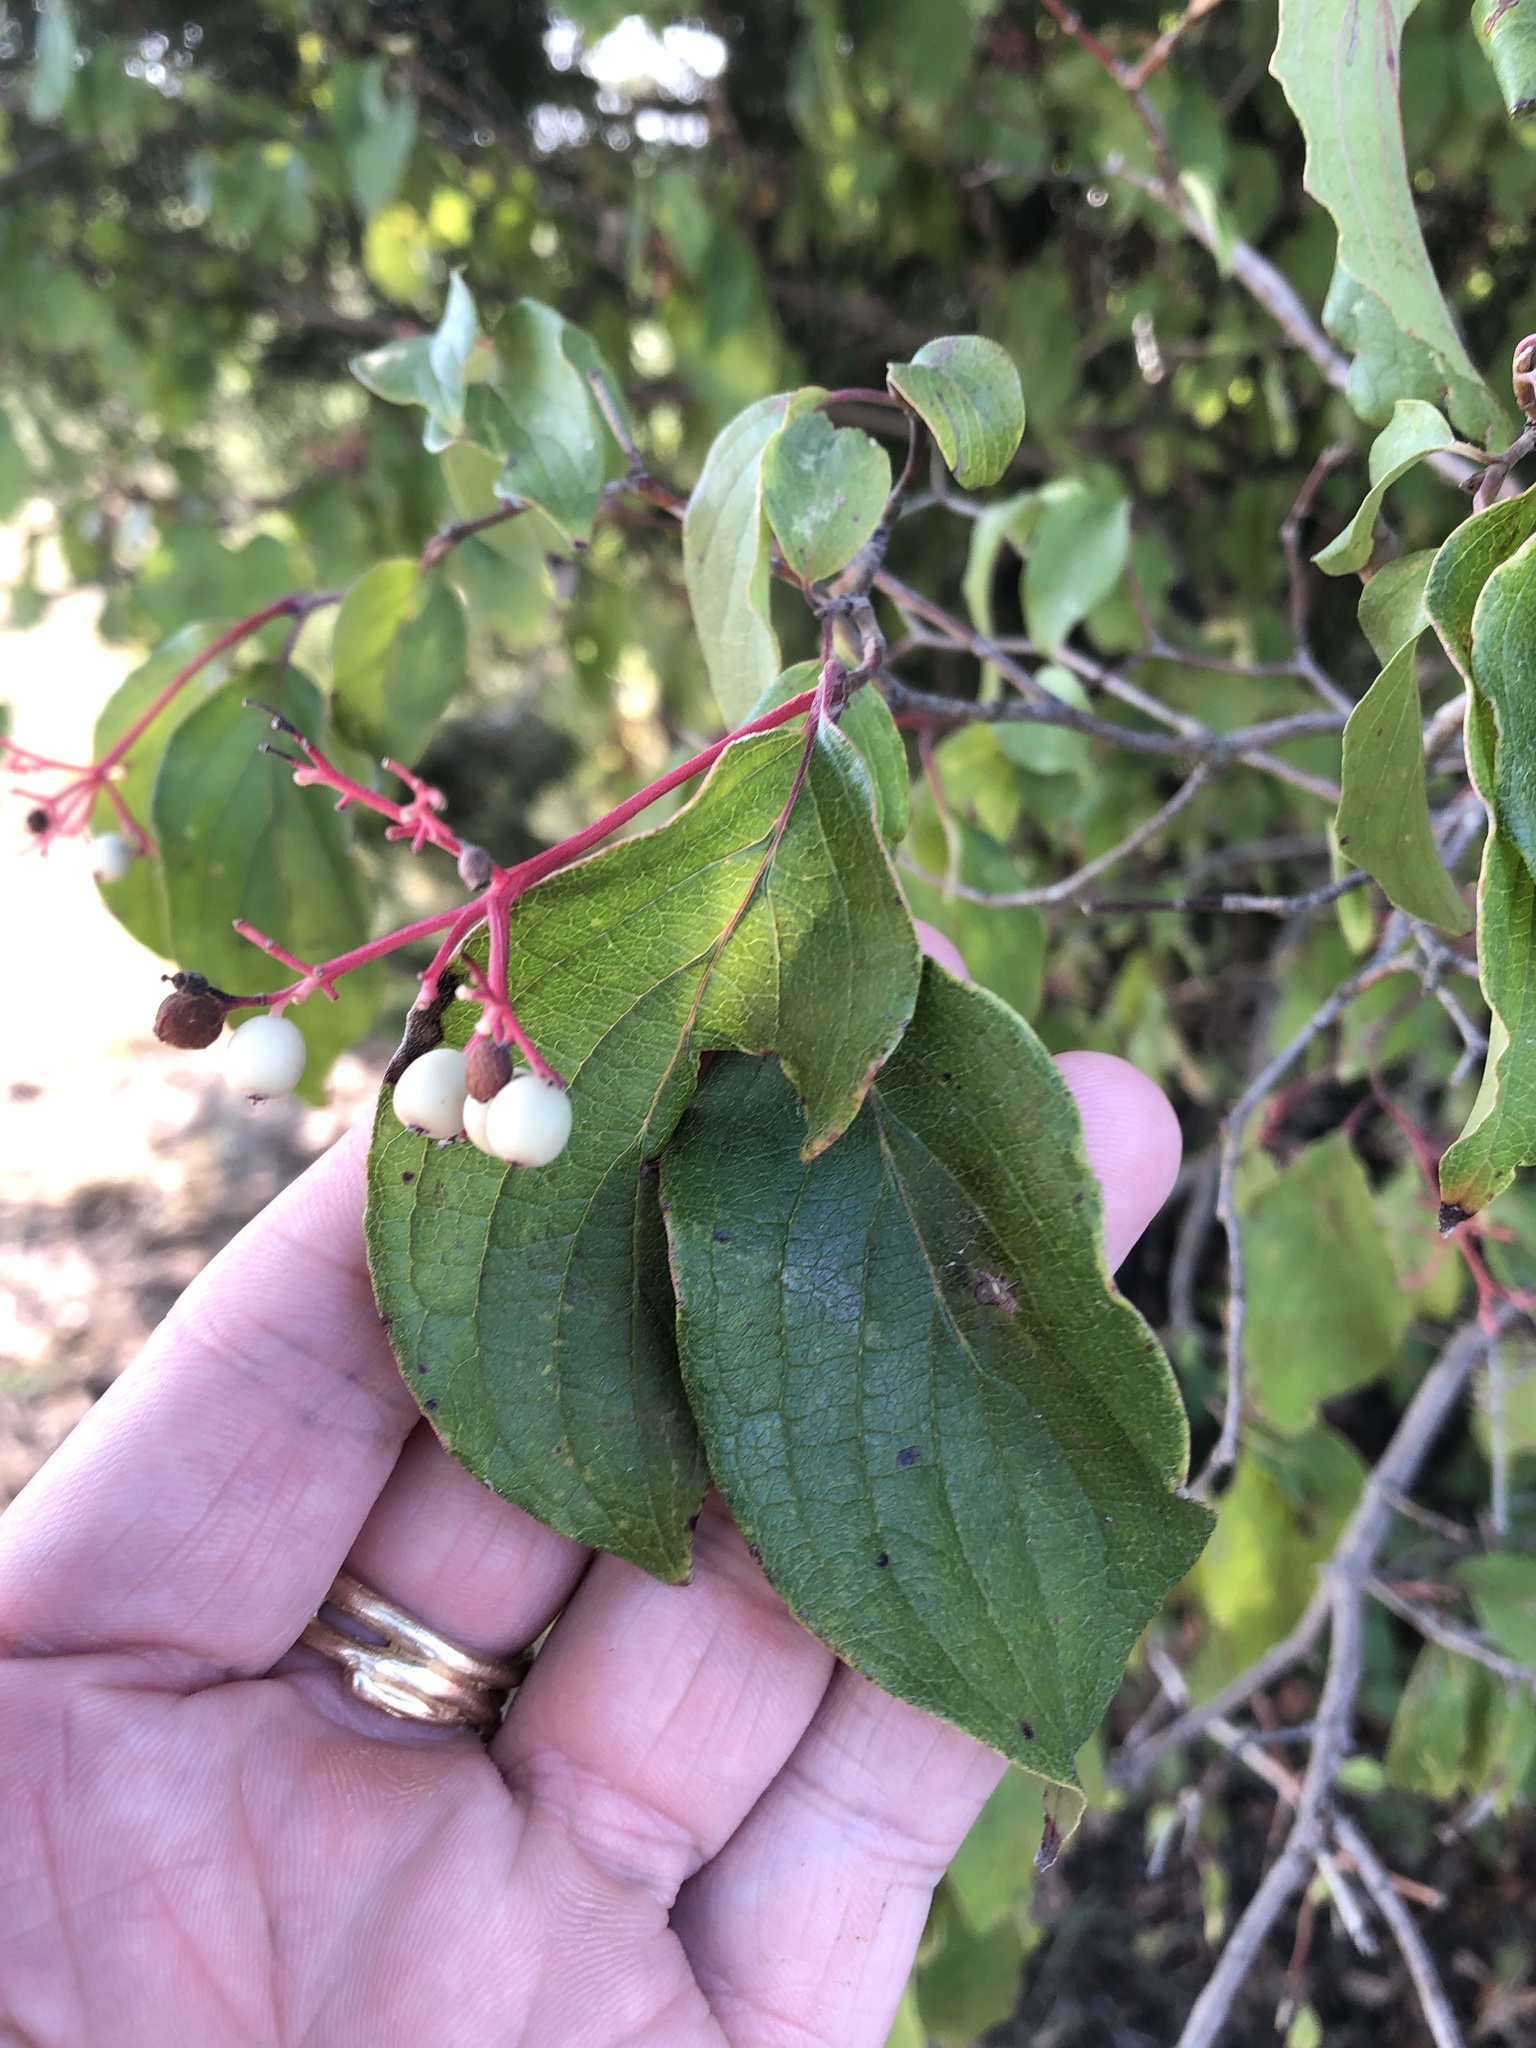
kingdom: Plantae
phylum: Tracheophyta
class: Magnoliopsida
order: Cornales
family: Cornaceae
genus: Cornus
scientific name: Cornus drummondii
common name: Rough-leaf dogwood
